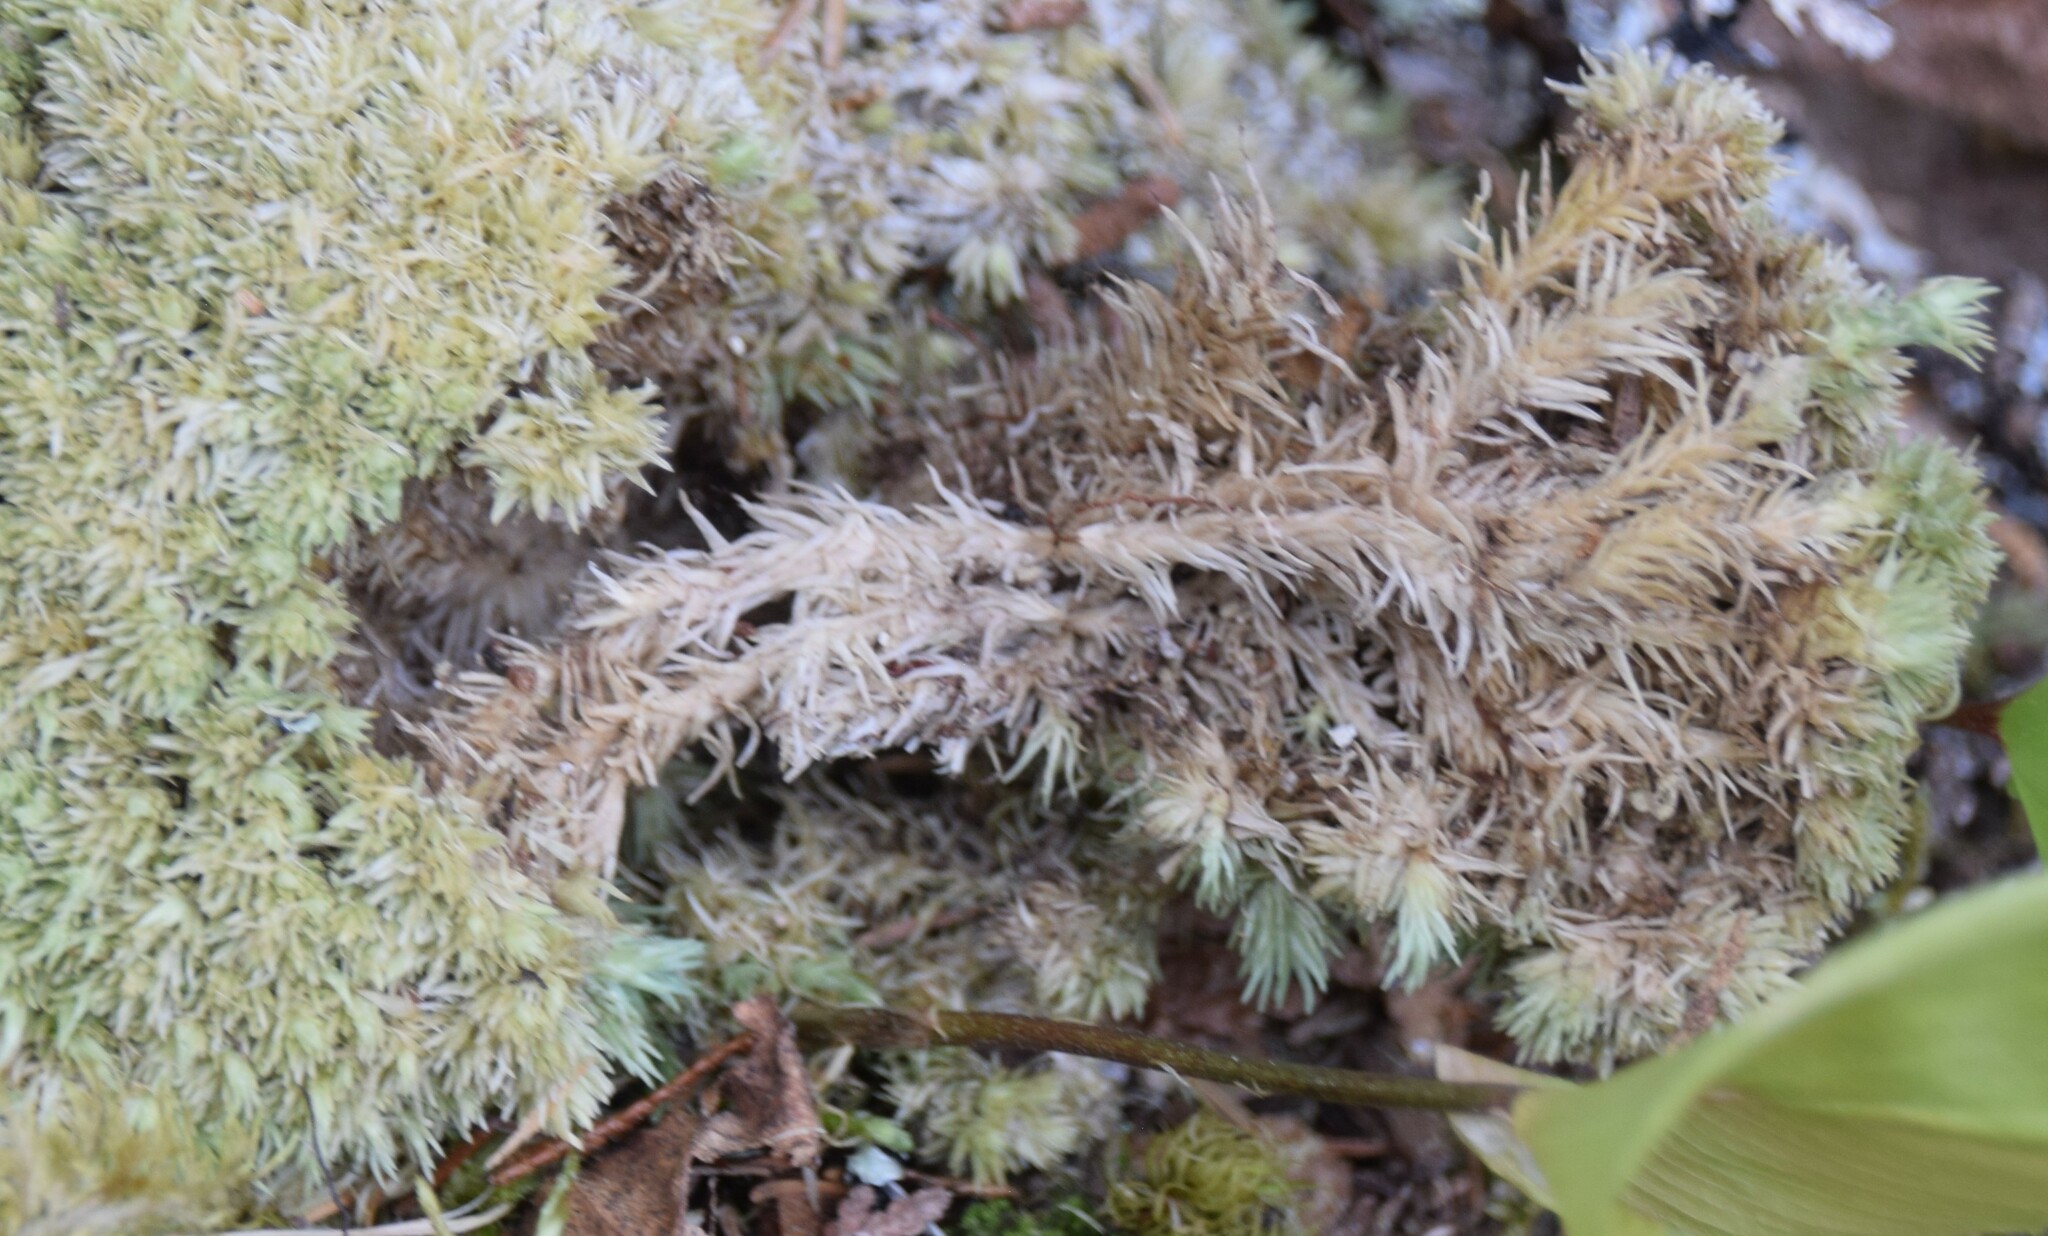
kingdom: Plantae
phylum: Bryophyta
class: Bryopsida
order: Dicranales
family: Leucobryaceae
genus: Leucobryum
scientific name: Leucobryum glaucum
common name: Large white-moss
